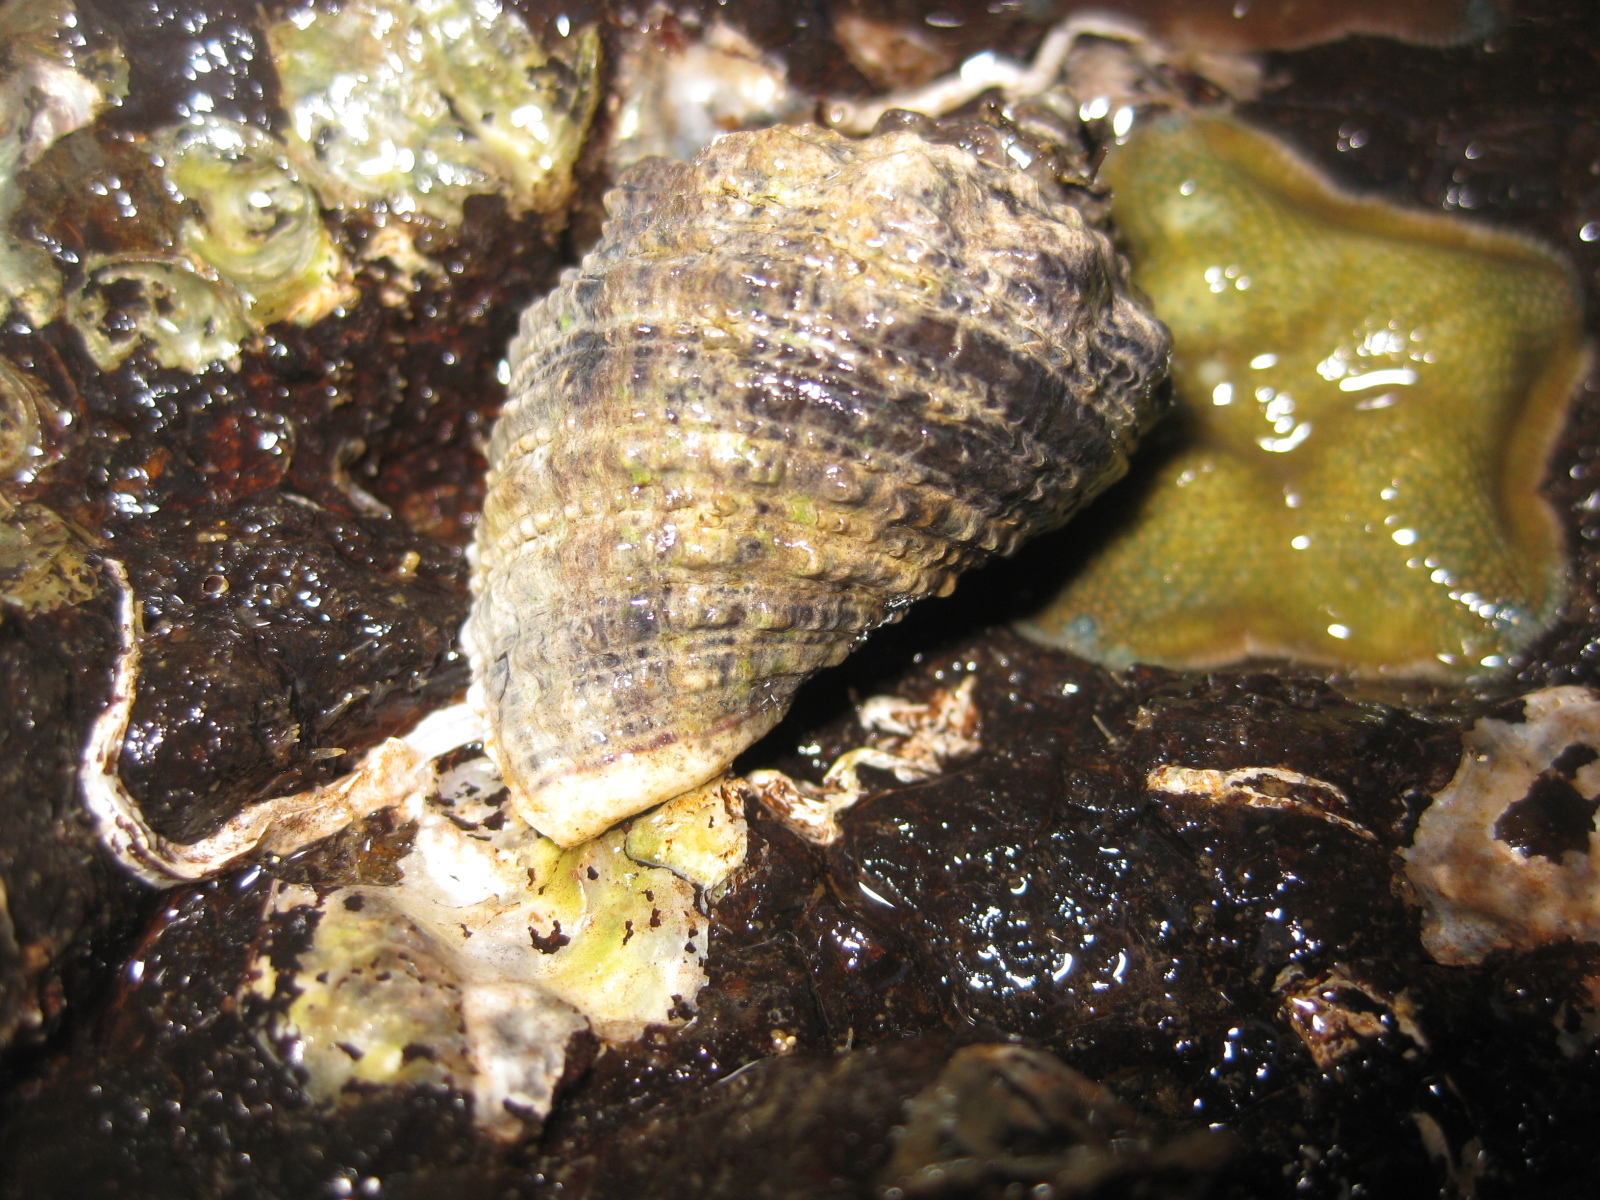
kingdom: Animalia
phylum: Mollusca
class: Gastropoda
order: Neogastropoda
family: Muricidae
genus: Haustrum
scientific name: Haustrum haustorium
